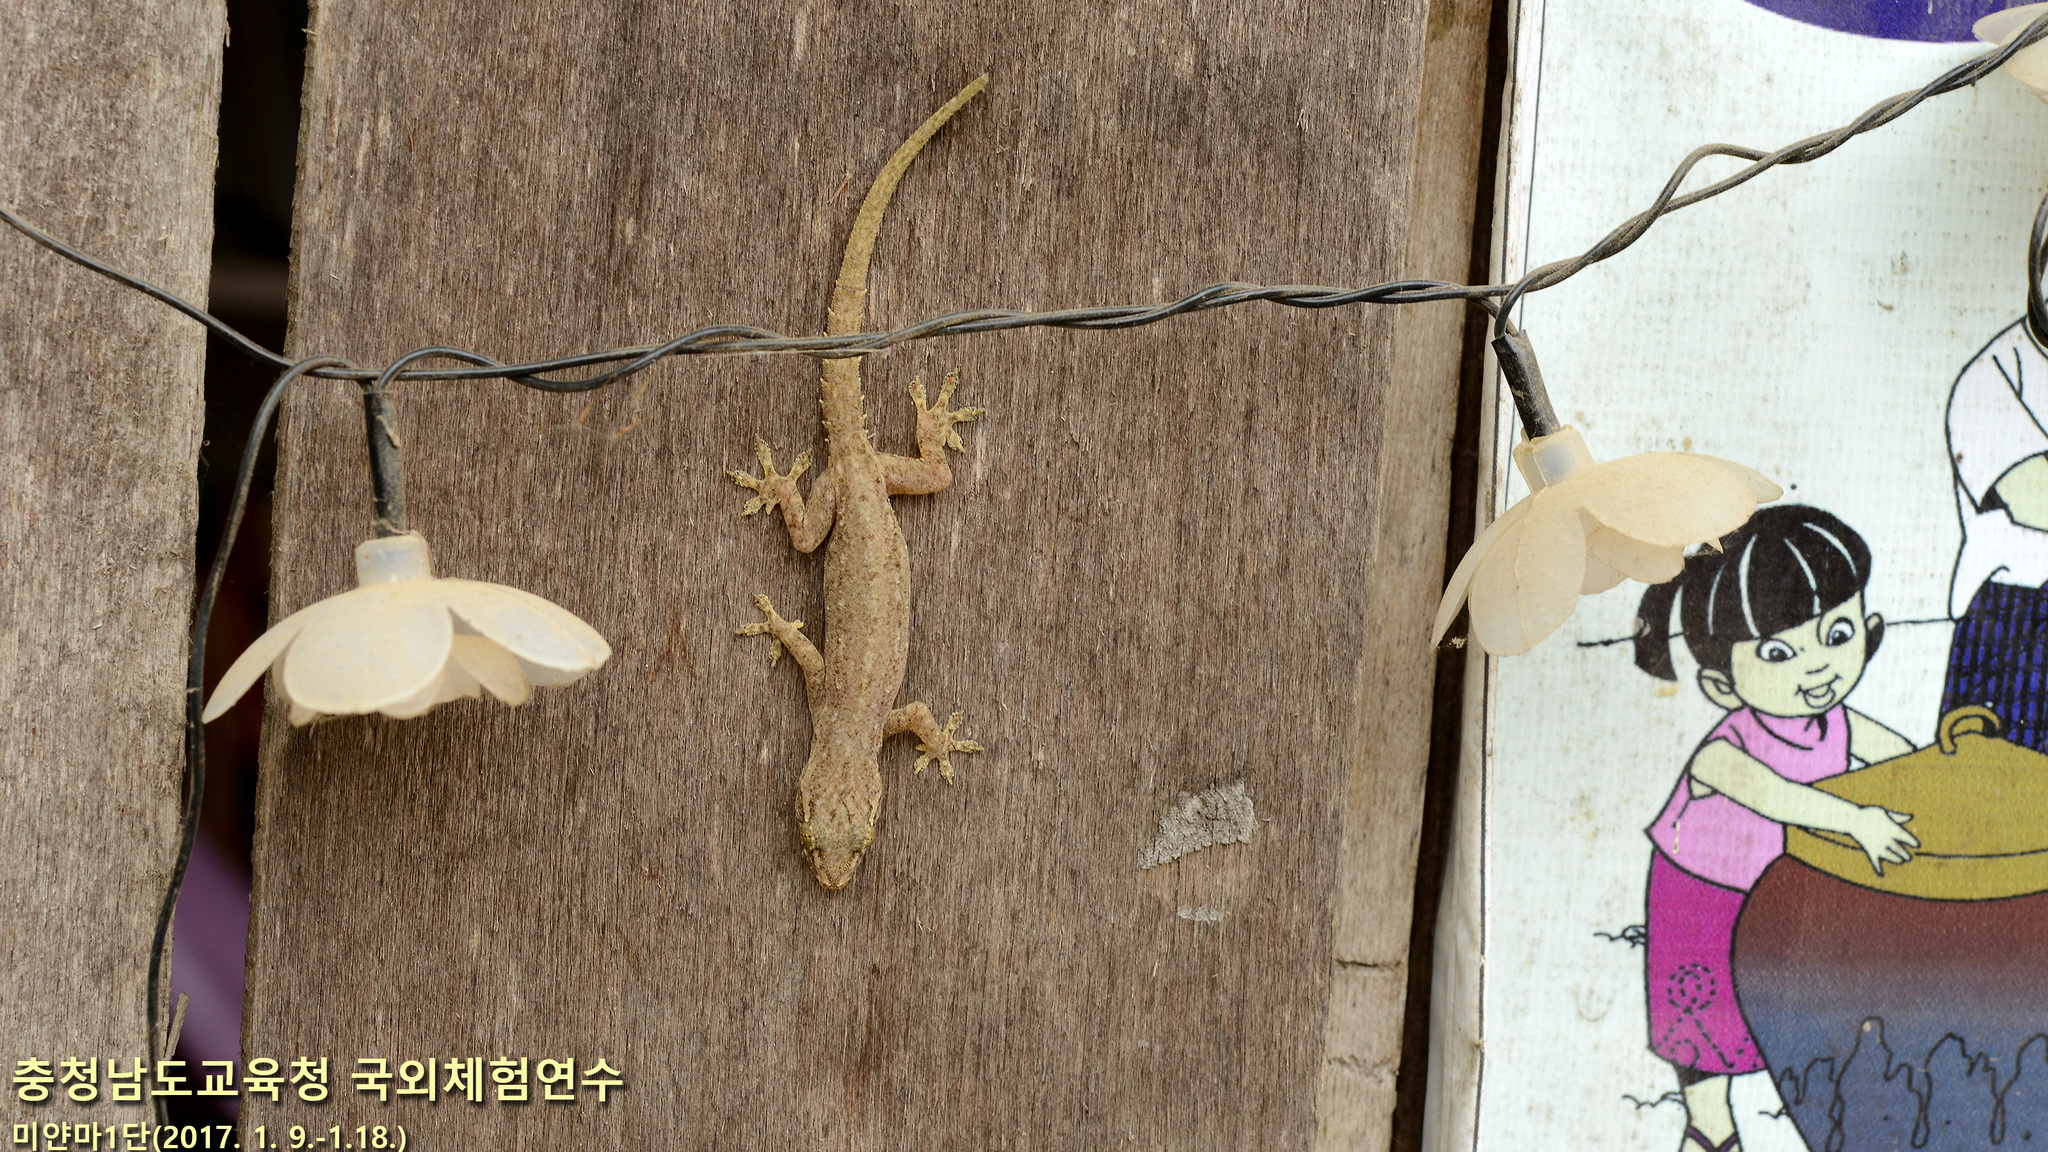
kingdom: Animalia
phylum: Chordata
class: Squamata
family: Gekkonidae
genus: Hemidactylus
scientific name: Hemidactylus frenatus
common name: Common house gecko
